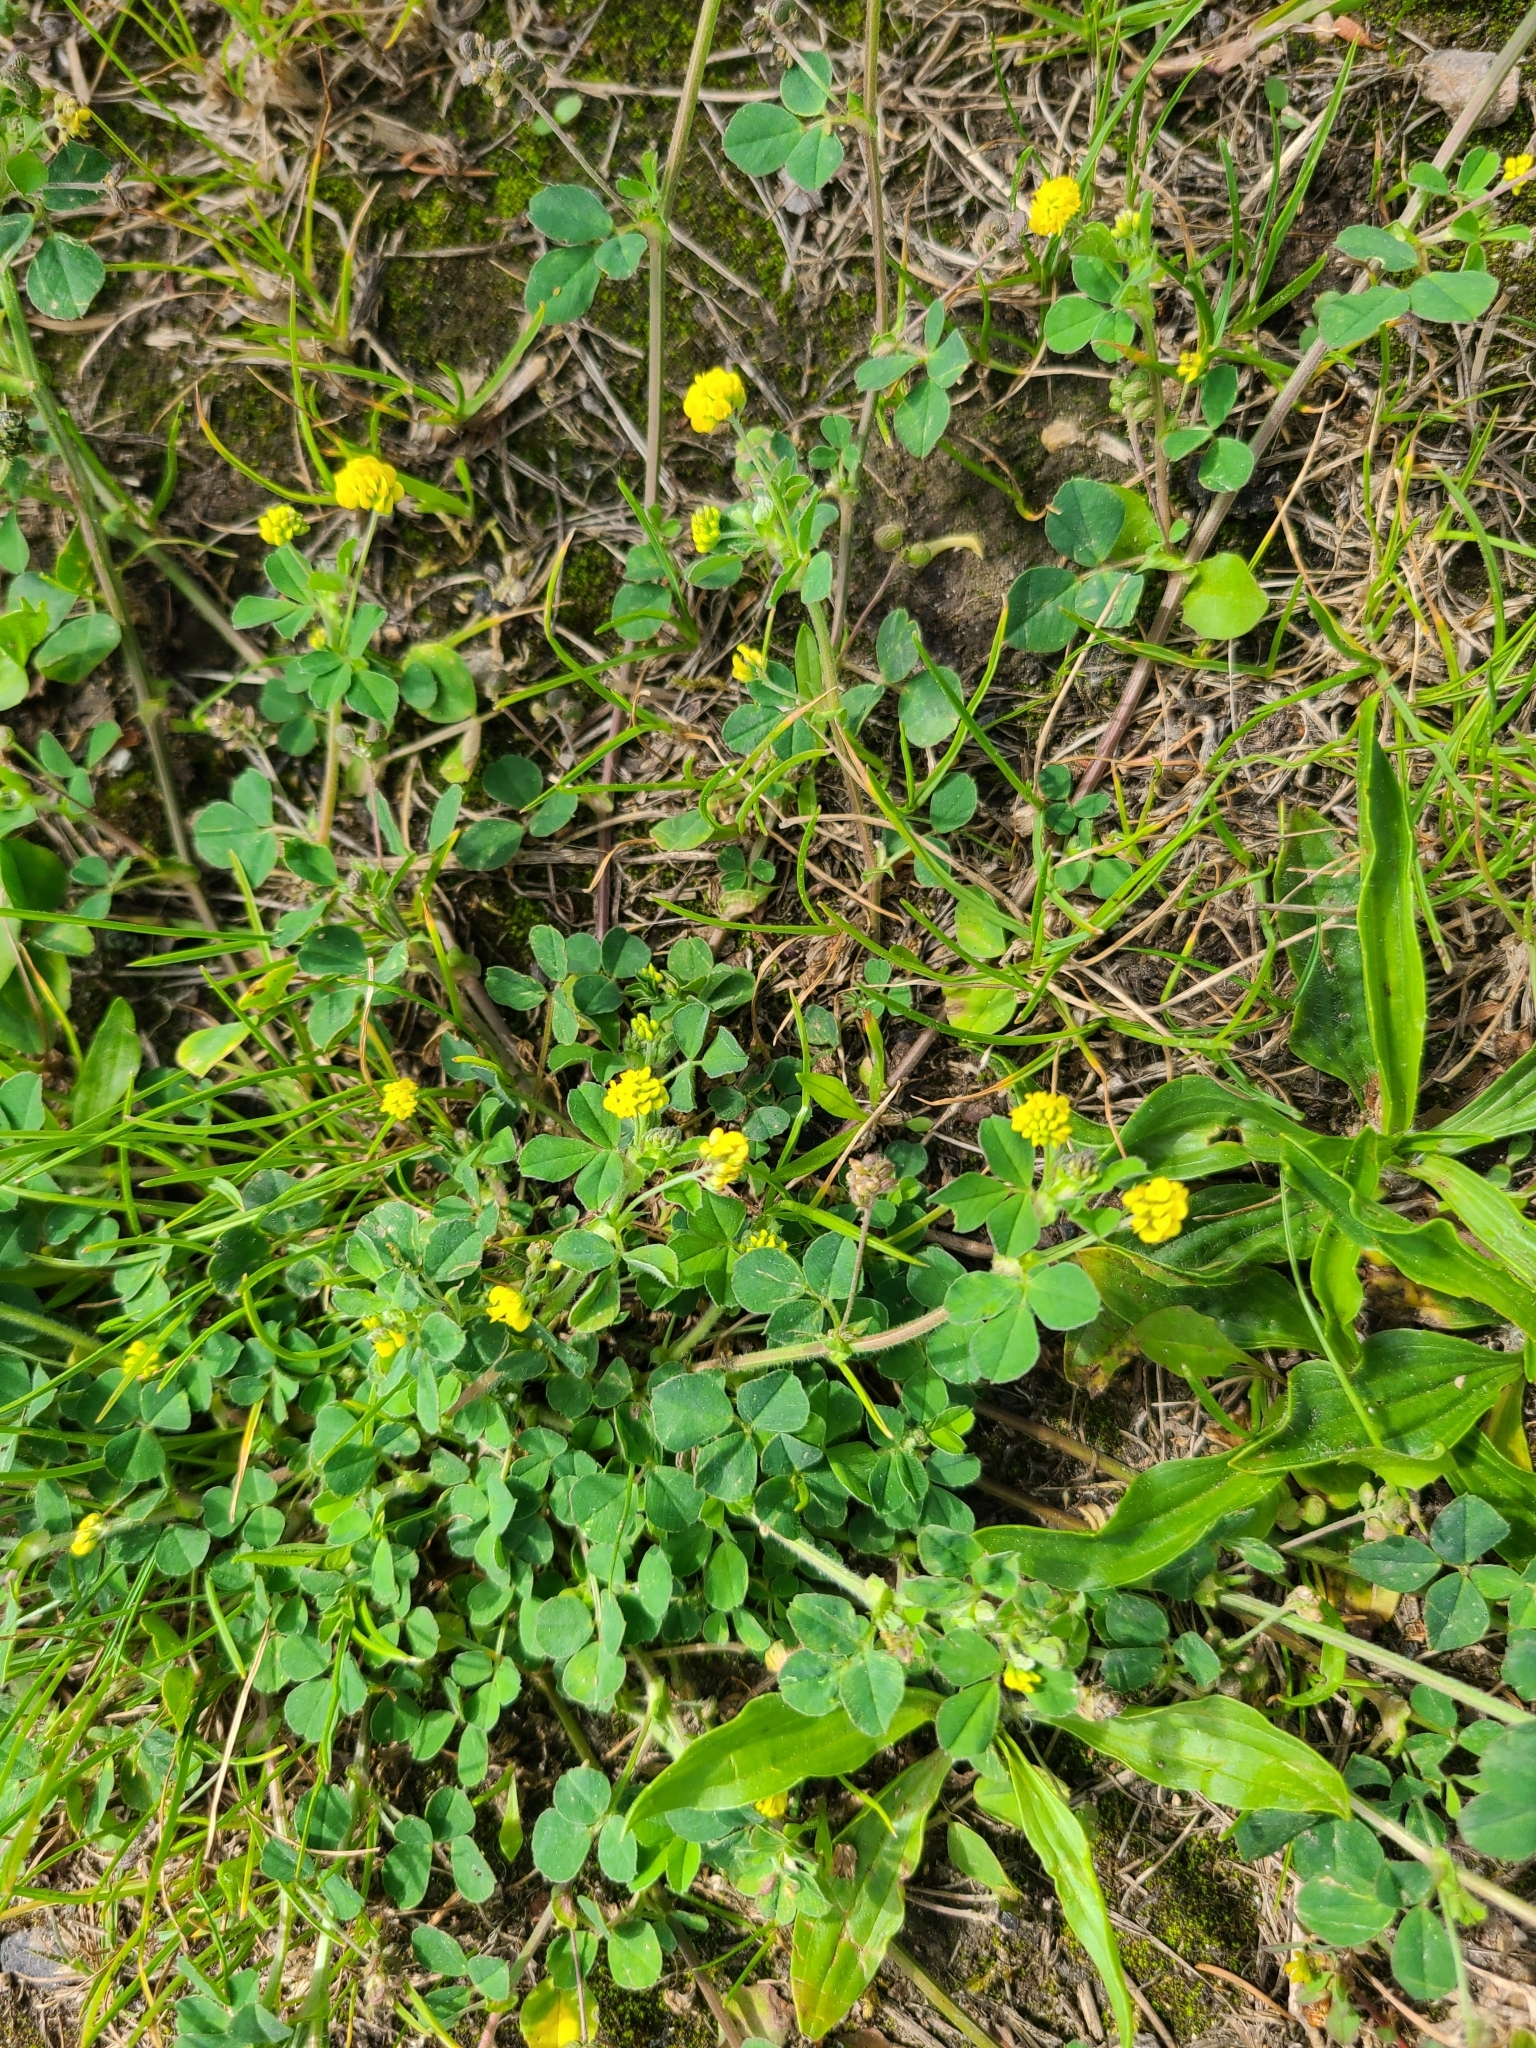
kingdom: Plantae
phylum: Tracheophyta
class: Magnoliopsida
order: Fabales
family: Fabaceae
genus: Medicago
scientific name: Medicago lupulina
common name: Black medick
